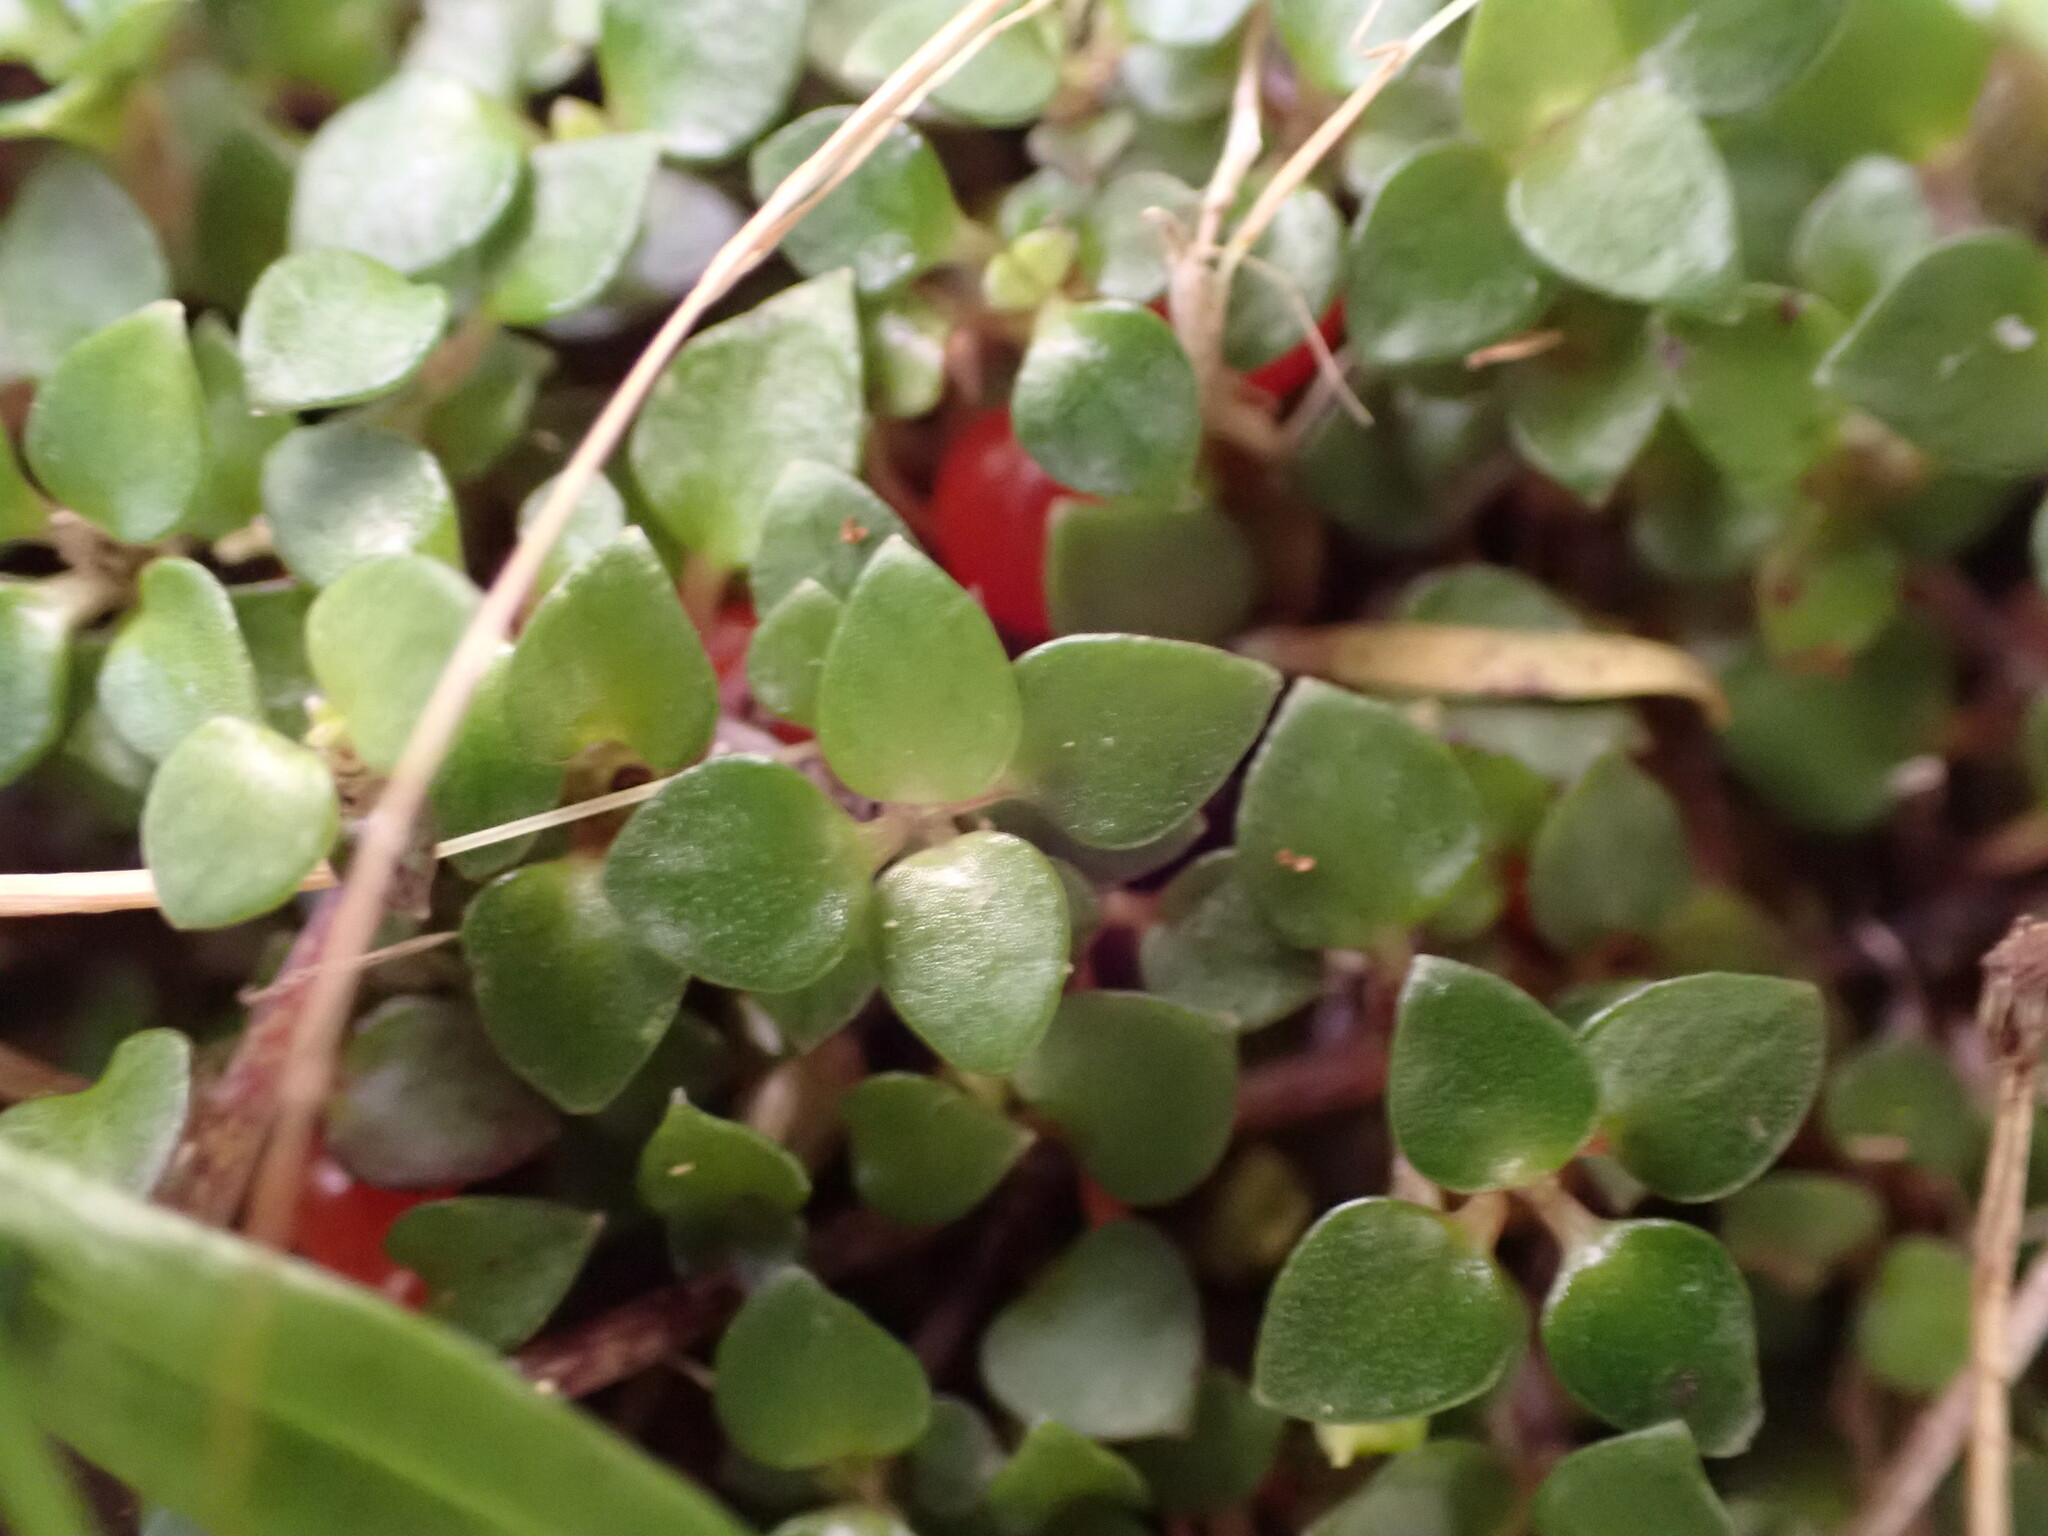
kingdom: Plantae
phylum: Tracheophyta
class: Magnoliopsida
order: Gentianales
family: Rubiaceae
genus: Nertera
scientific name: Nertera granadensis
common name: Beadplant
